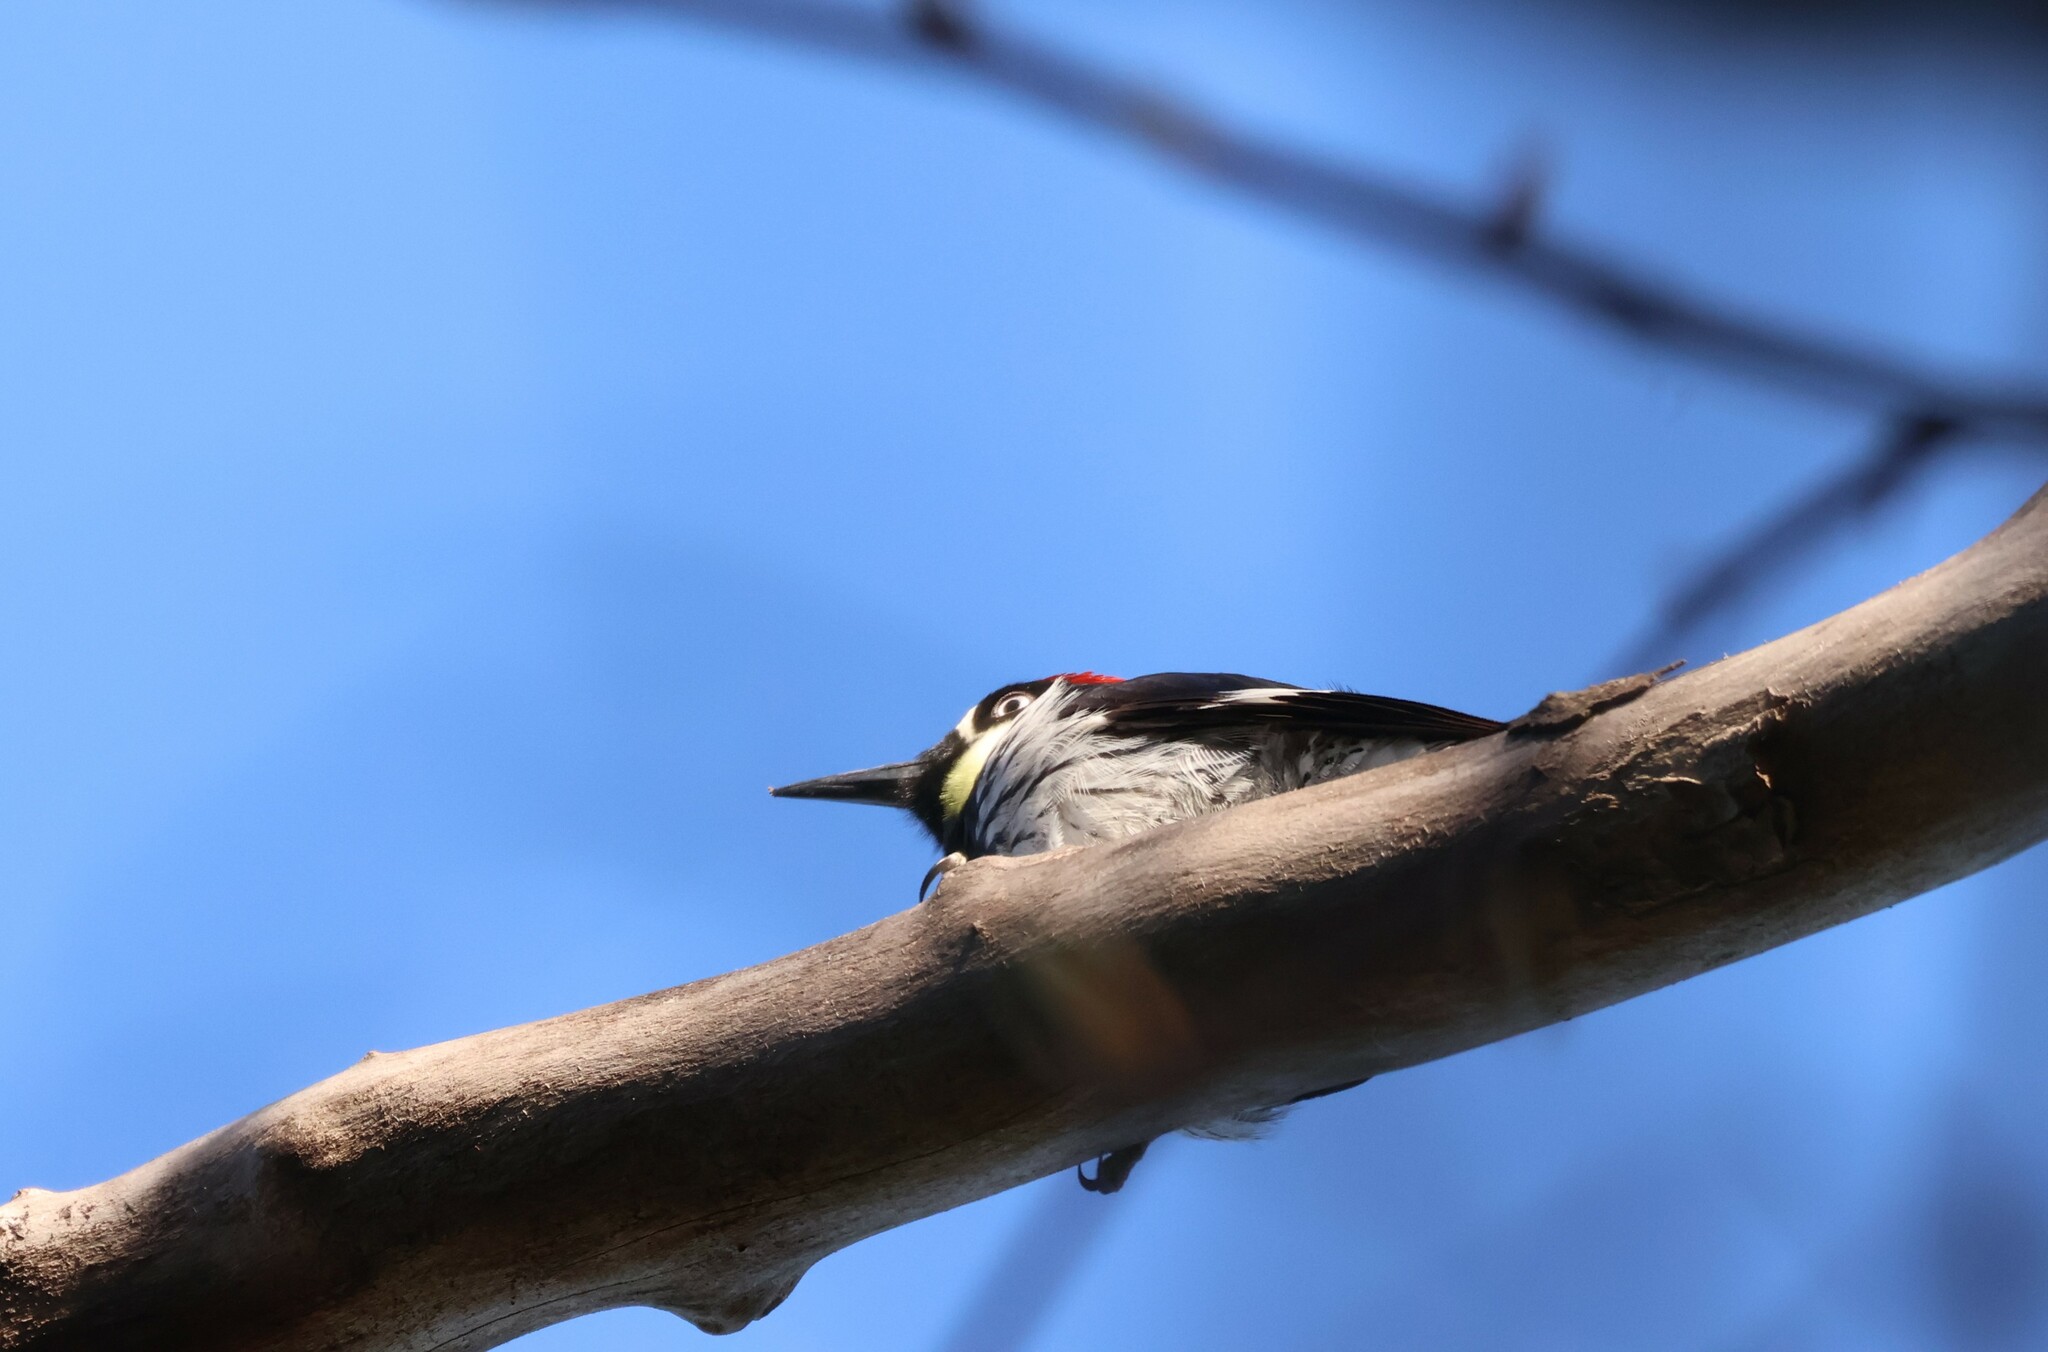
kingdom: Animalia
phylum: Chordata
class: Aves
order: Piciformes
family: Picidae
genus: Melanerpes
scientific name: Melanerpes formicivorus
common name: Acorn woodpecker
